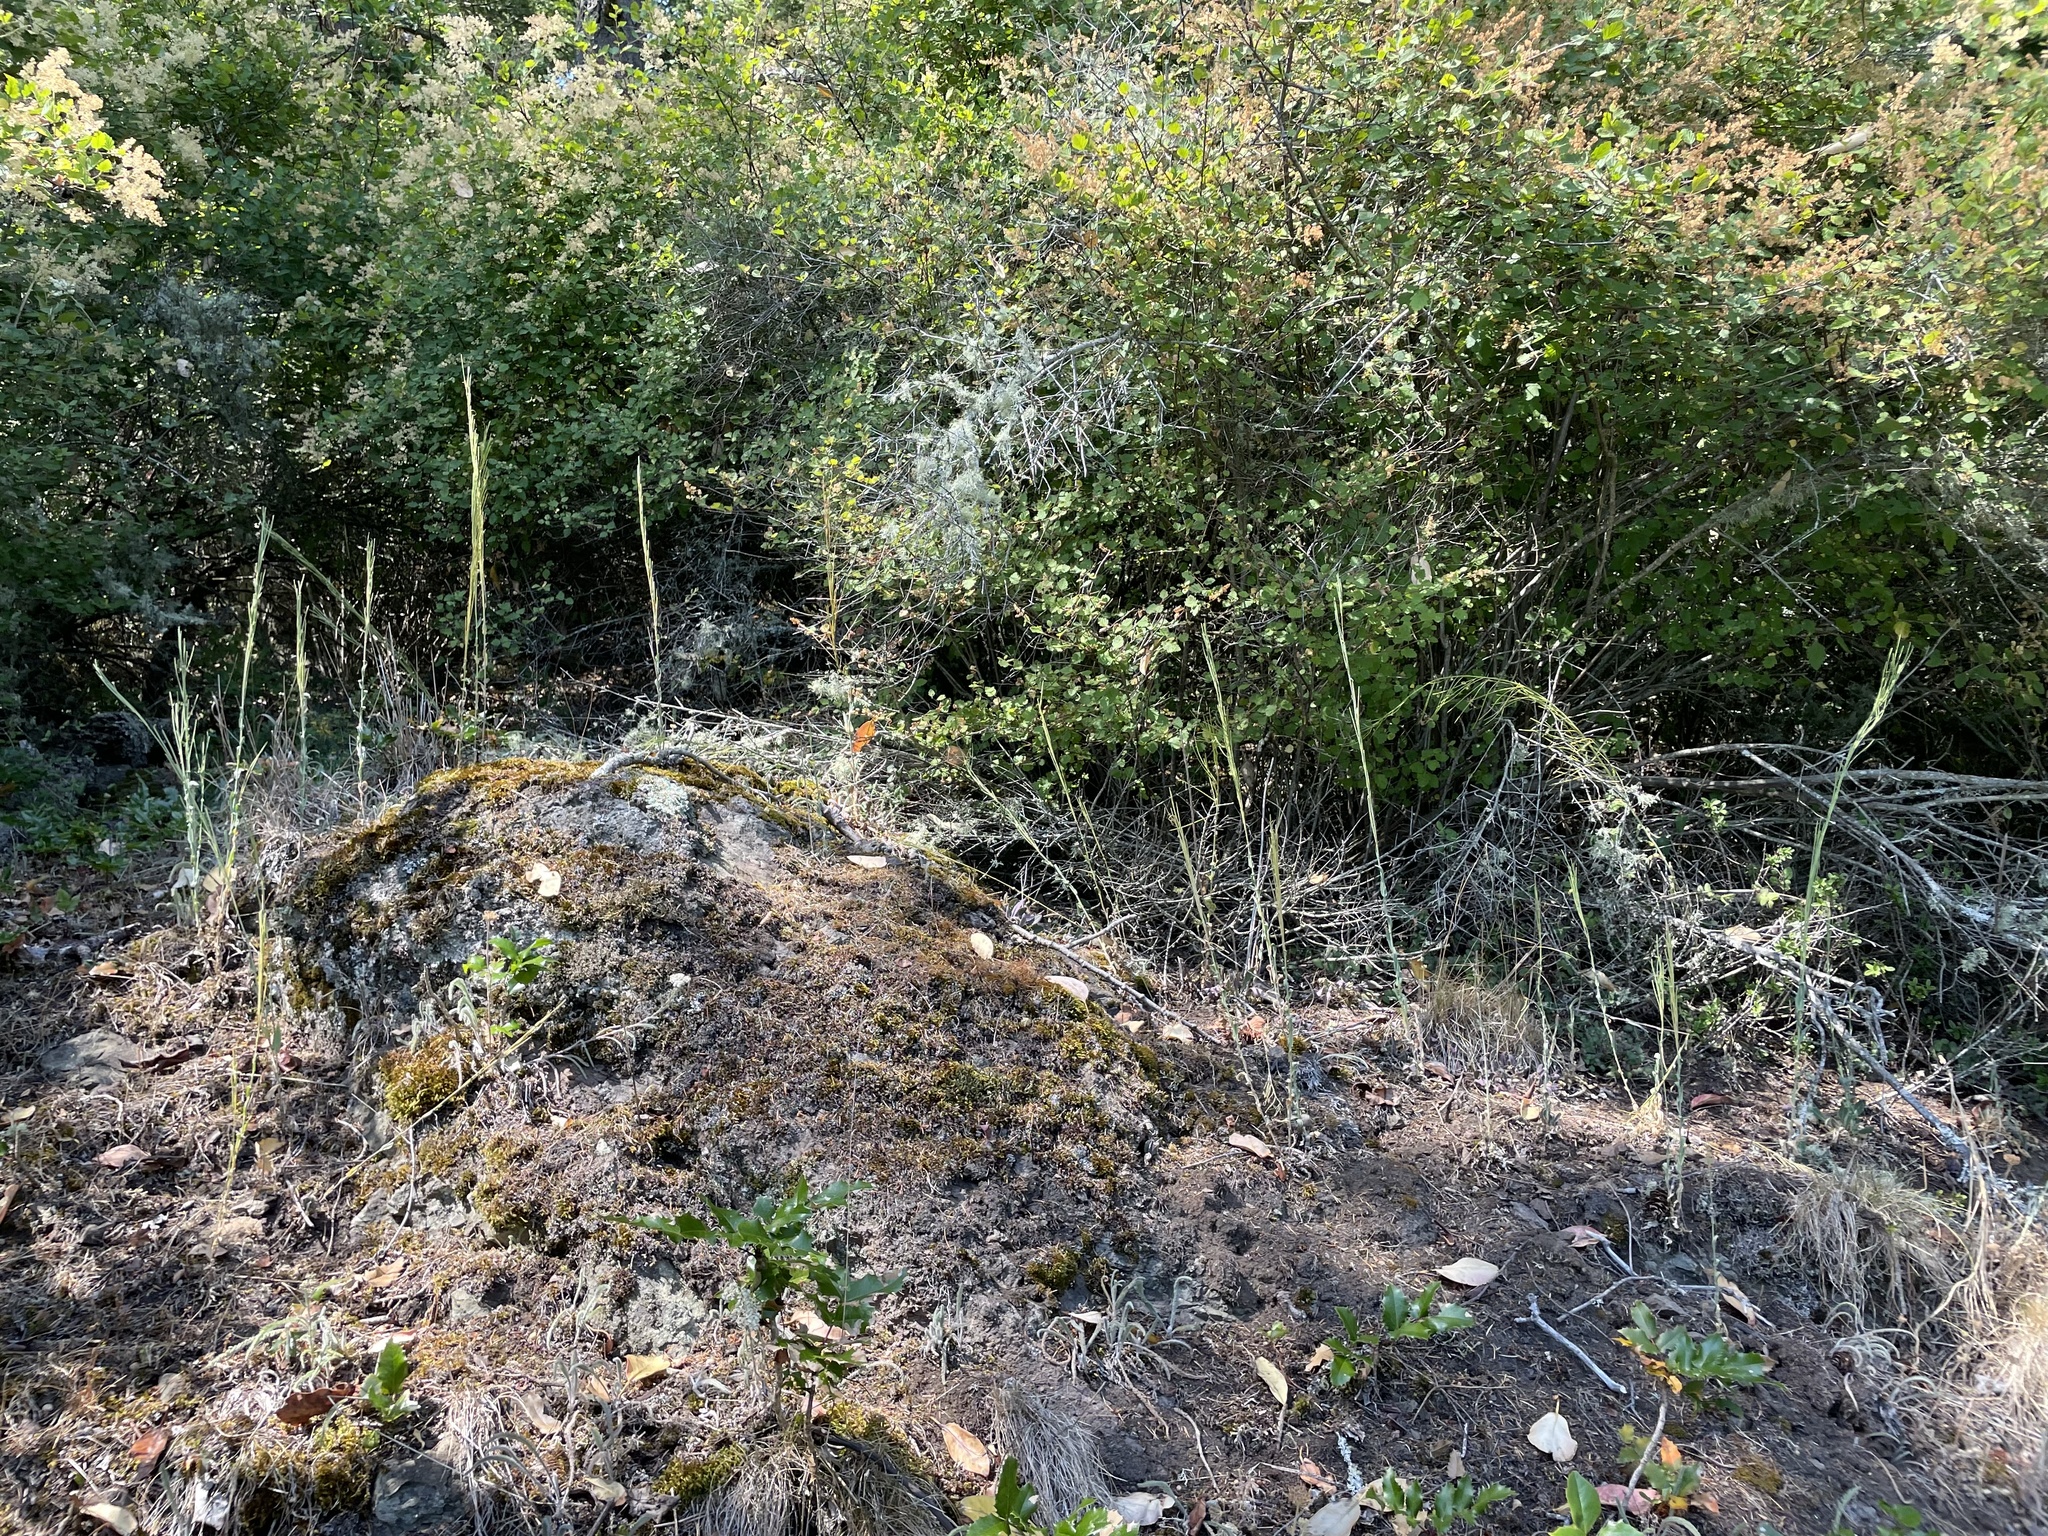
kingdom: Plantae
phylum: Tracheophyta
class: Magnoliopsida
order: Brassicales
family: Brassicaceae
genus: Turritis
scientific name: Turritis glabra
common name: Tower rockcress
